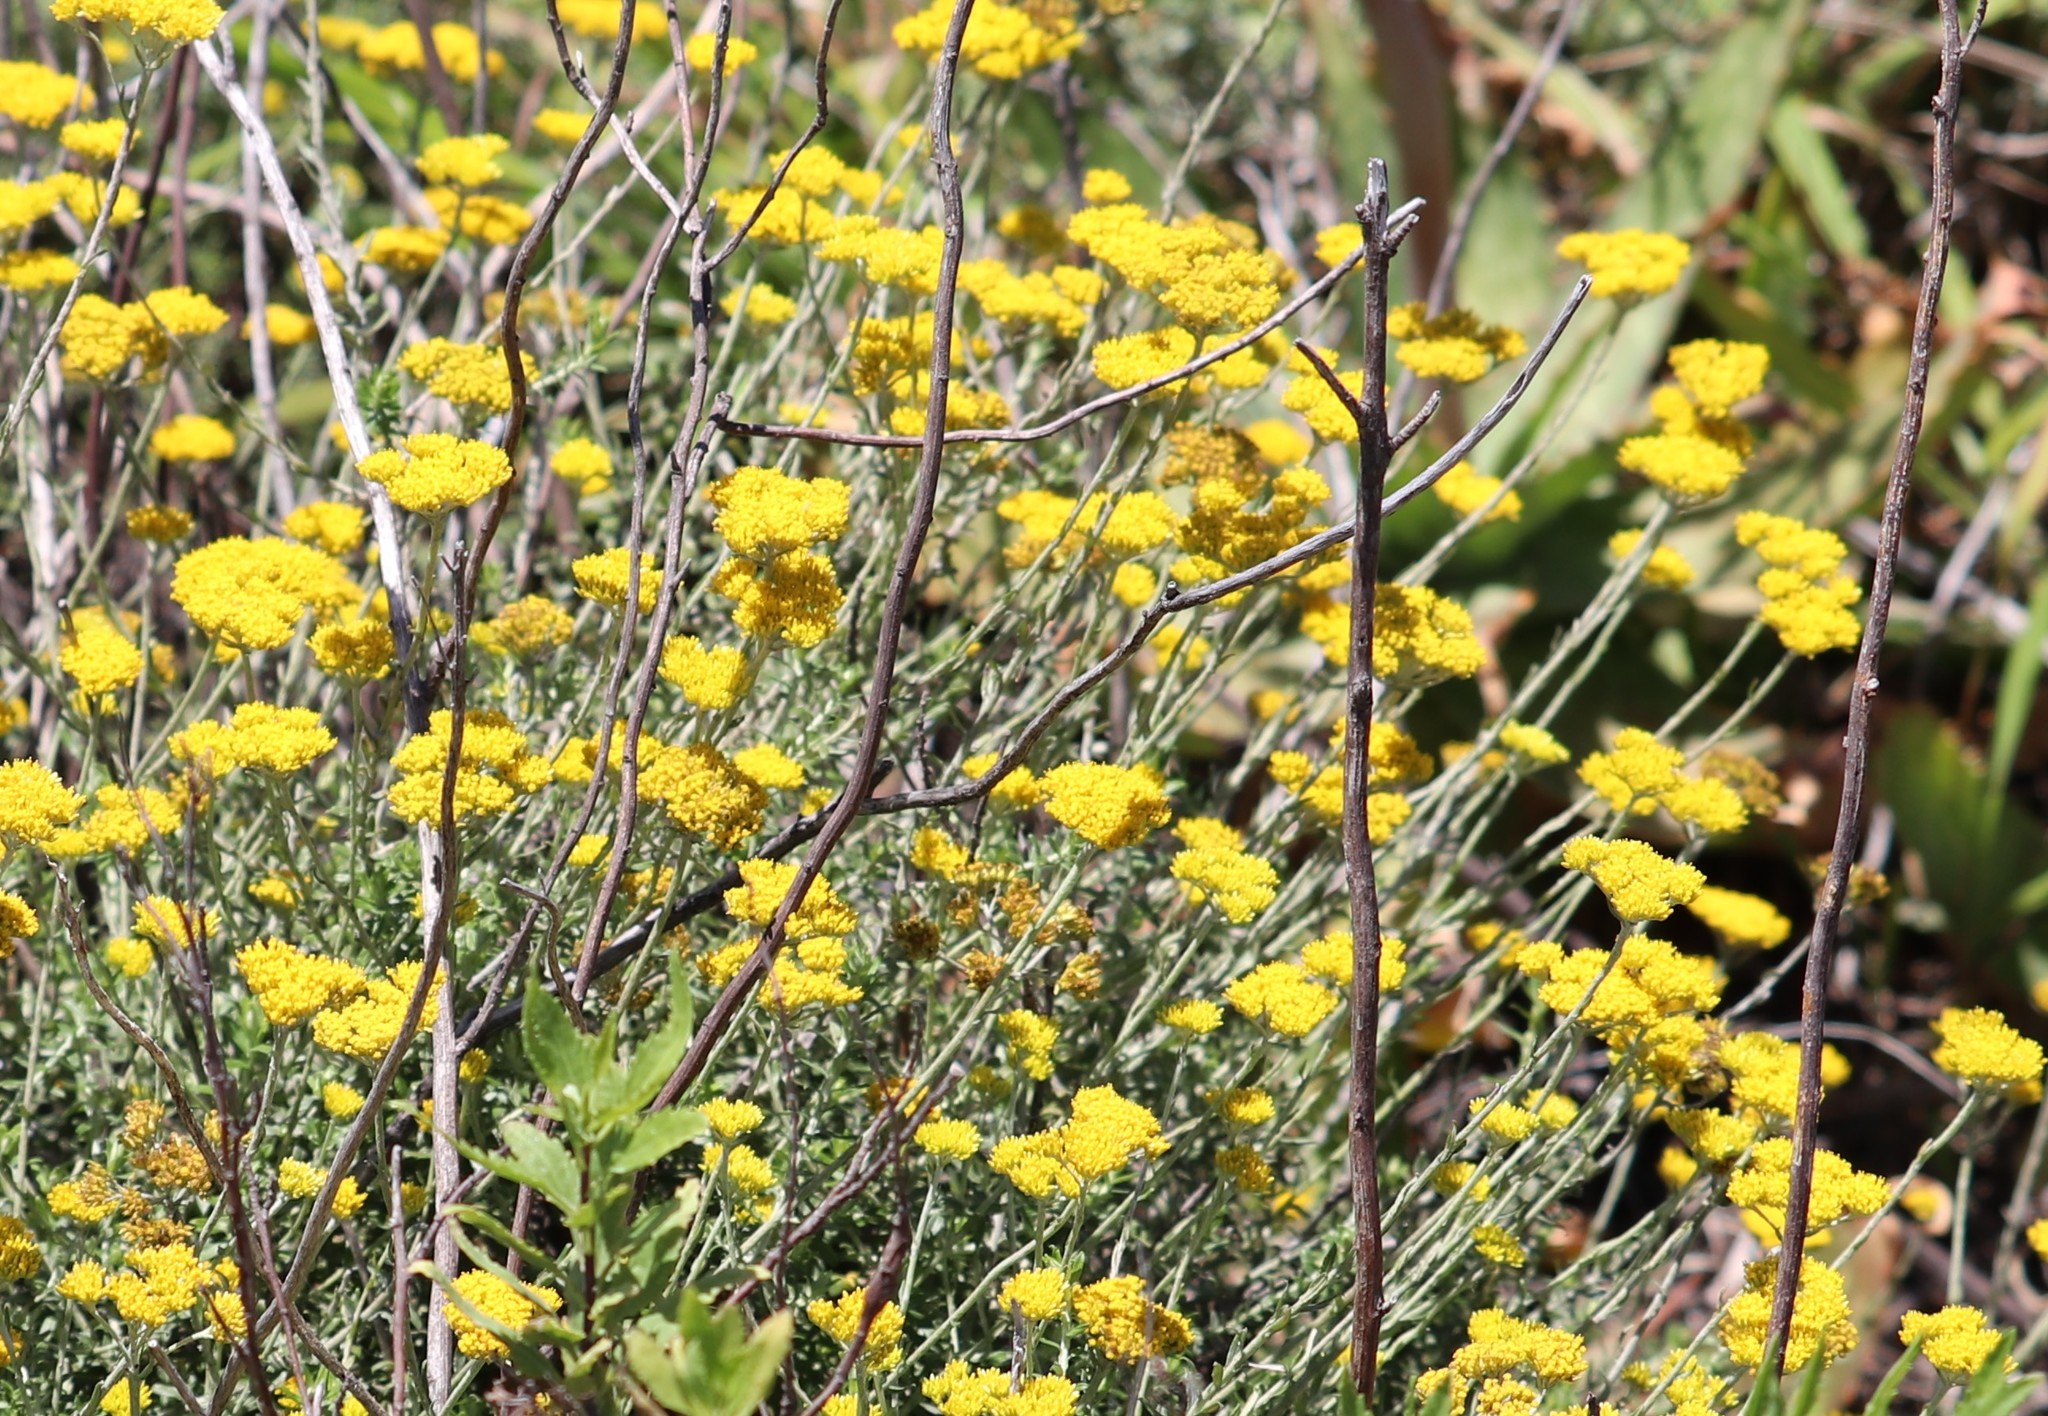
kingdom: Plantae
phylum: Tracheophyta
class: Magnoliopsida
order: Asterales
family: Asteraceae
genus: Helichrysum
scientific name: Helichrysum cymosum
